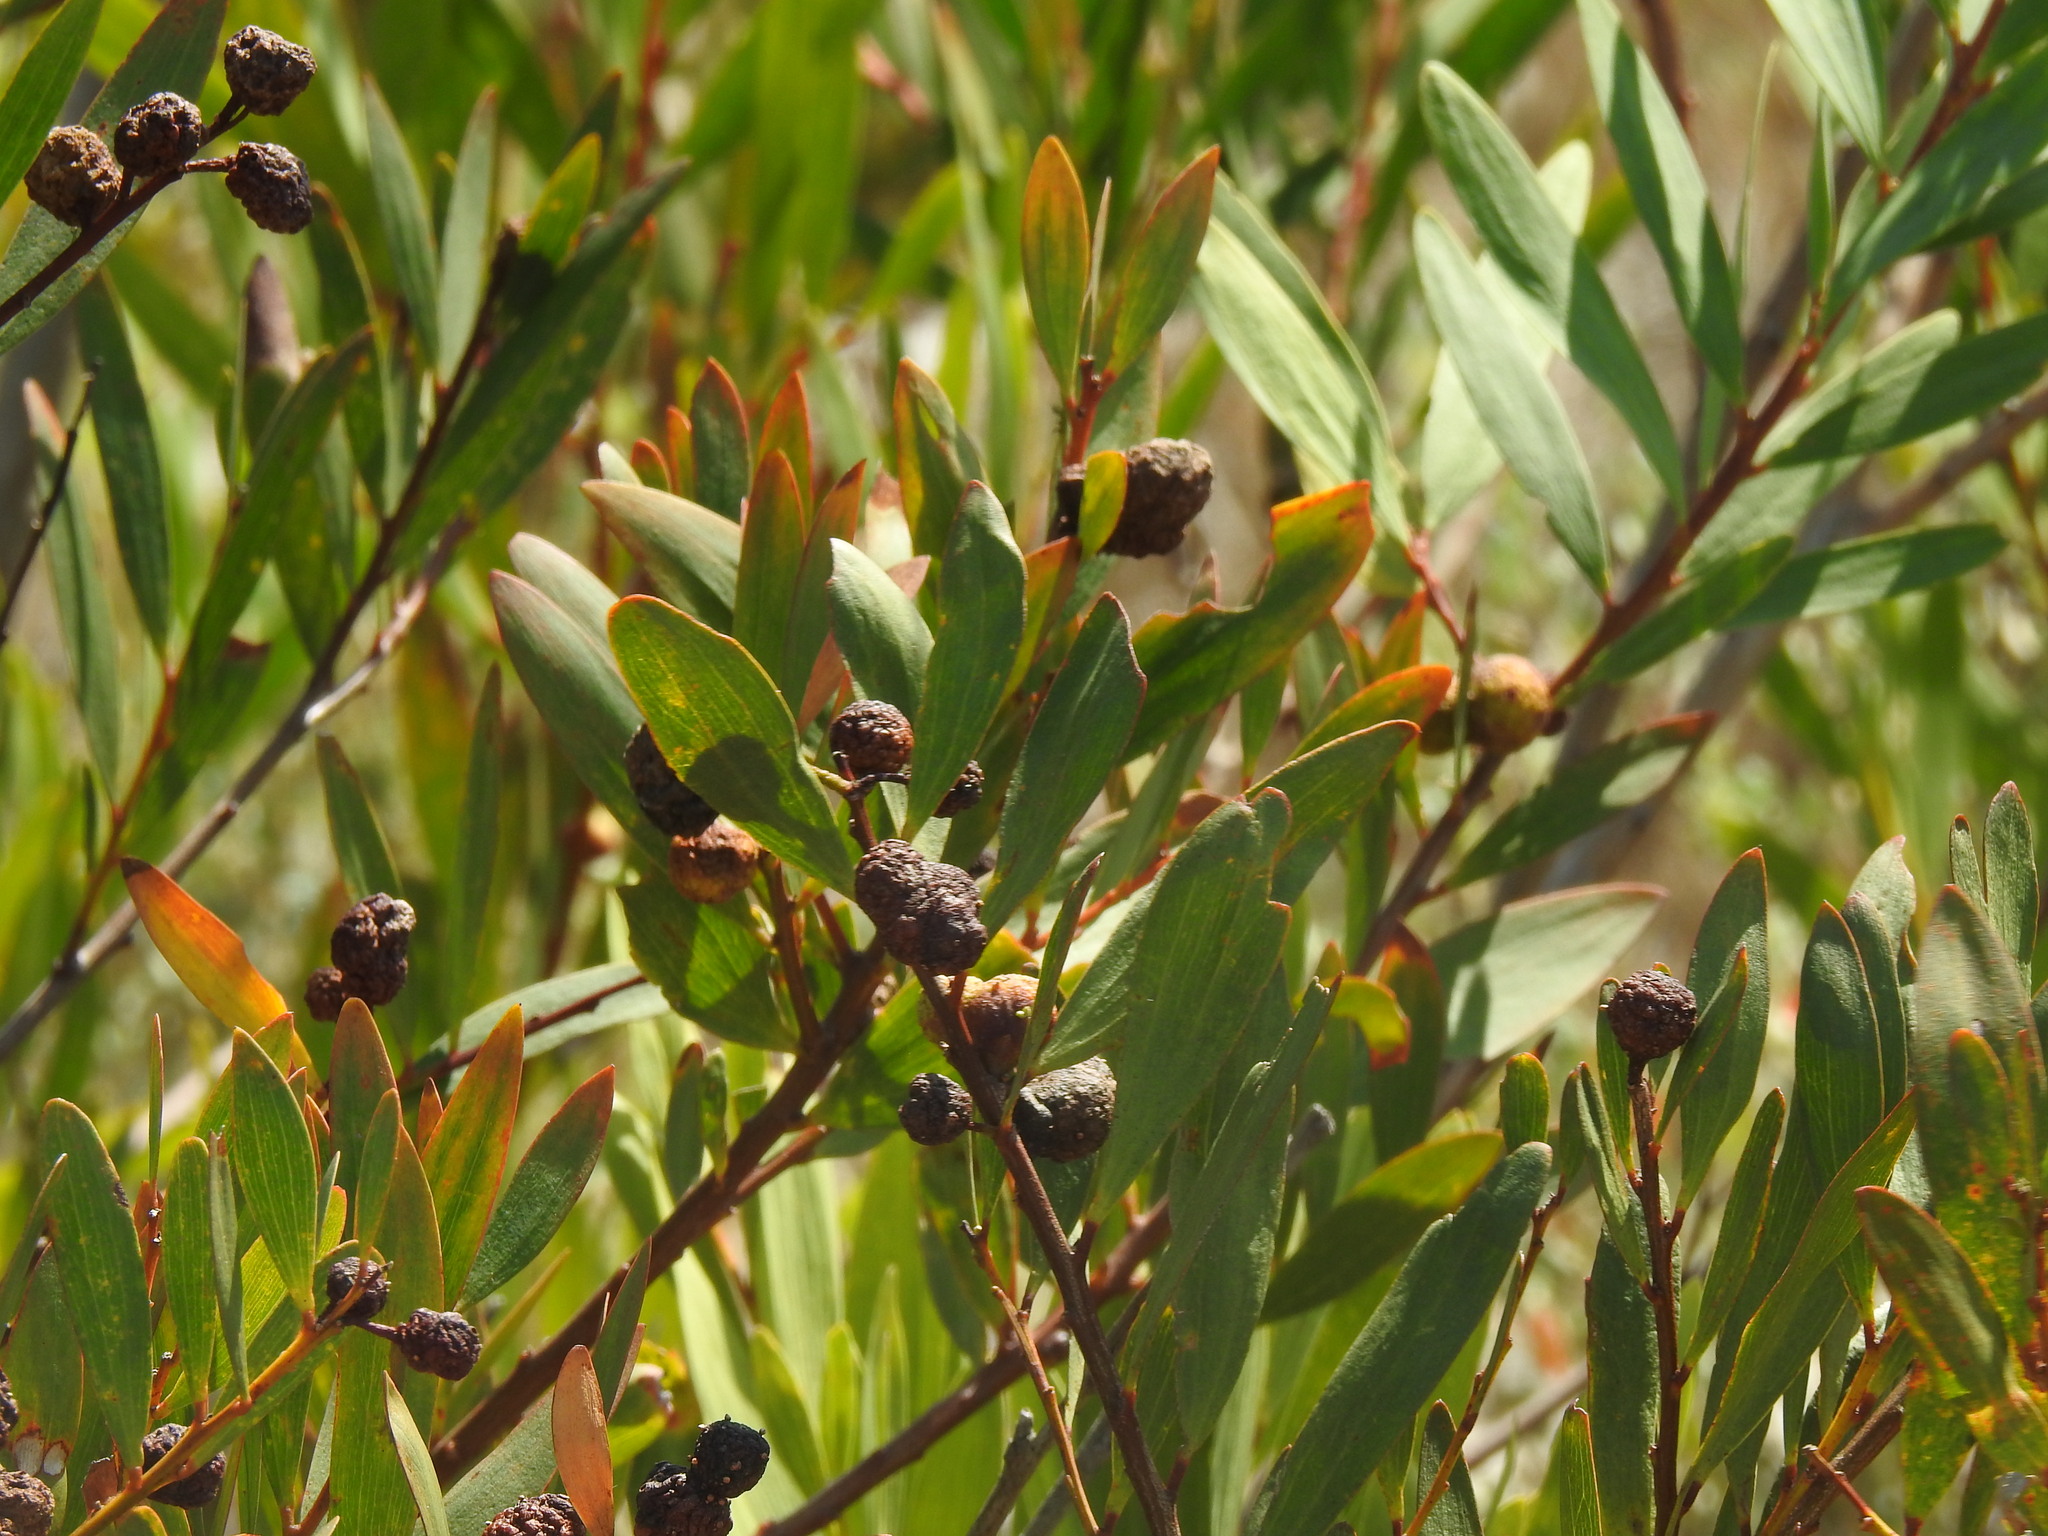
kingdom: Animalia
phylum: Arthropoda
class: Insecta
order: Hymenoptera
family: Pteromalidae
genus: Trichilogaster
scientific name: Trichilogaster acaciaelongifoliae
